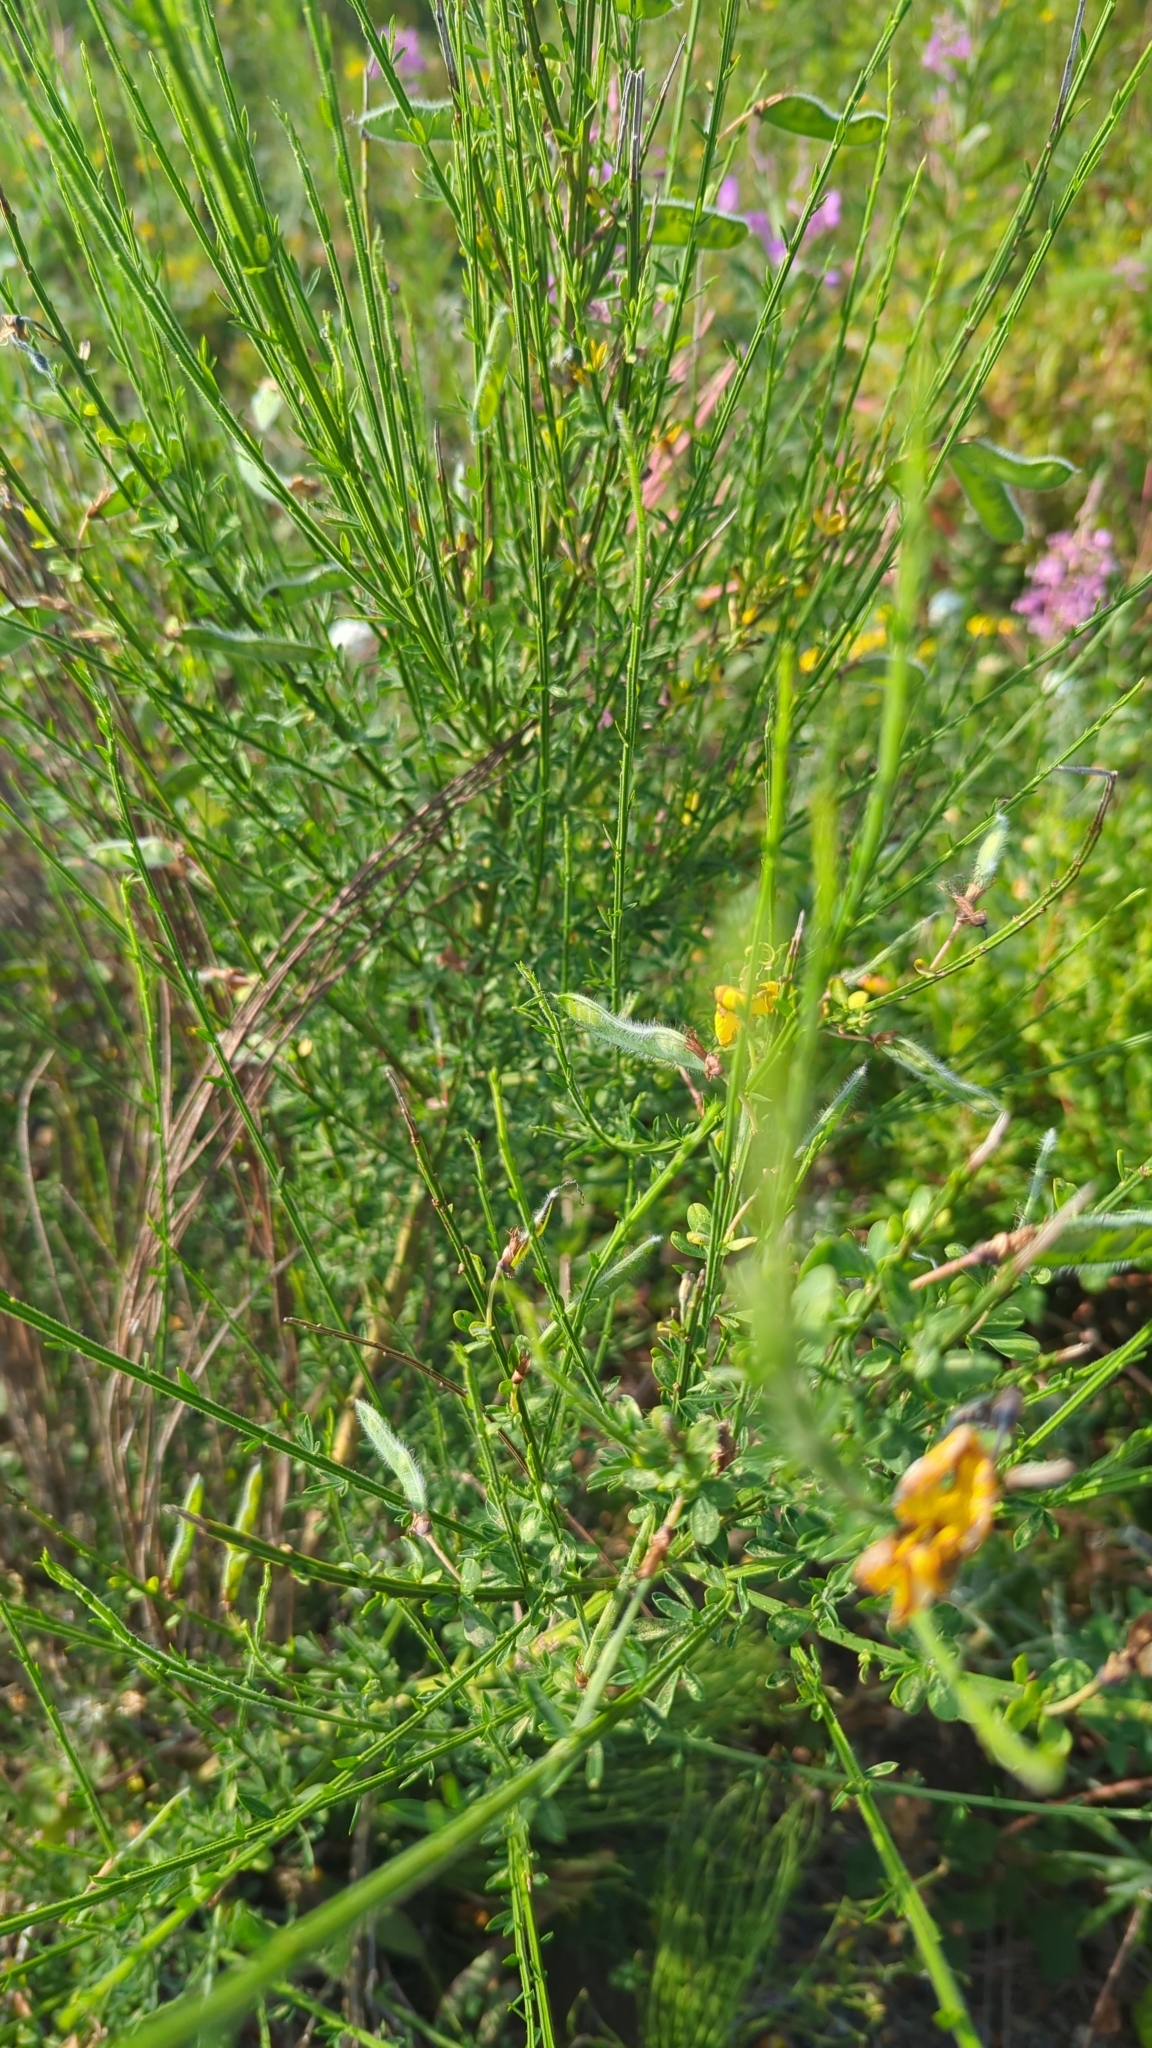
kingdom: Plantae
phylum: Tracheophyta
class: Magnoliopsida
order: Fabales
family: Fabaceae
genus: Cytisus
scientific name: Cytisus scoparius
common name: Scotch broom
